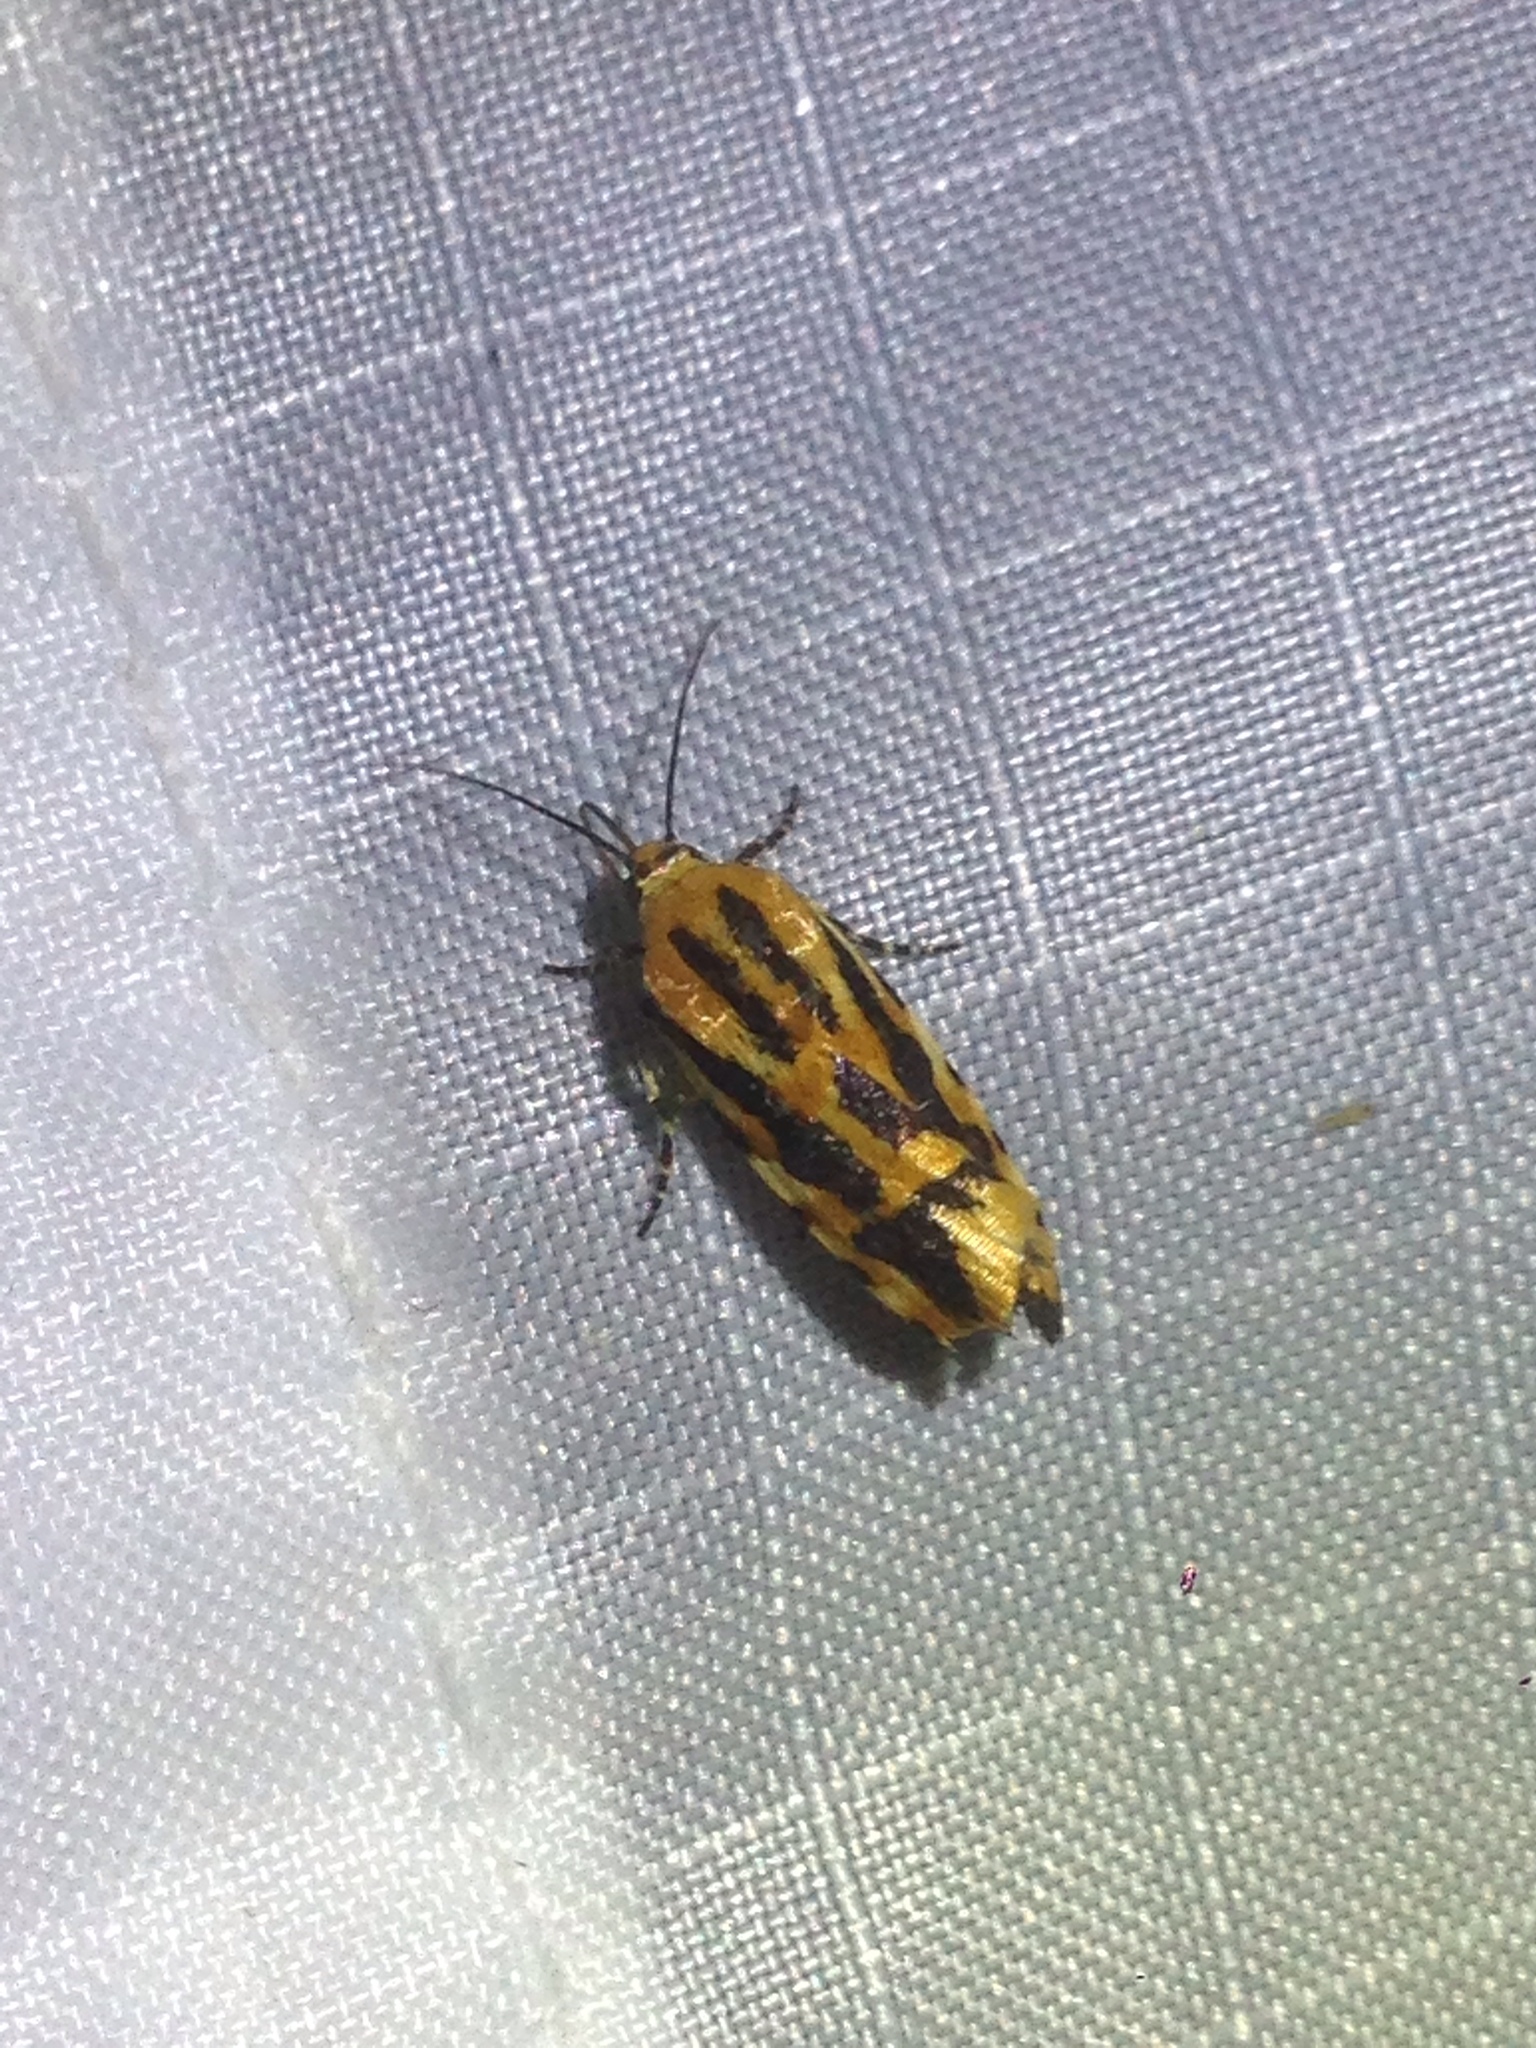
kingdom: Animalia
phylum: Arthropoda
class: Insecta
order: Lepidoptera
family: Noctuidae
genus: Acontia
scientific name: Acontia leo
